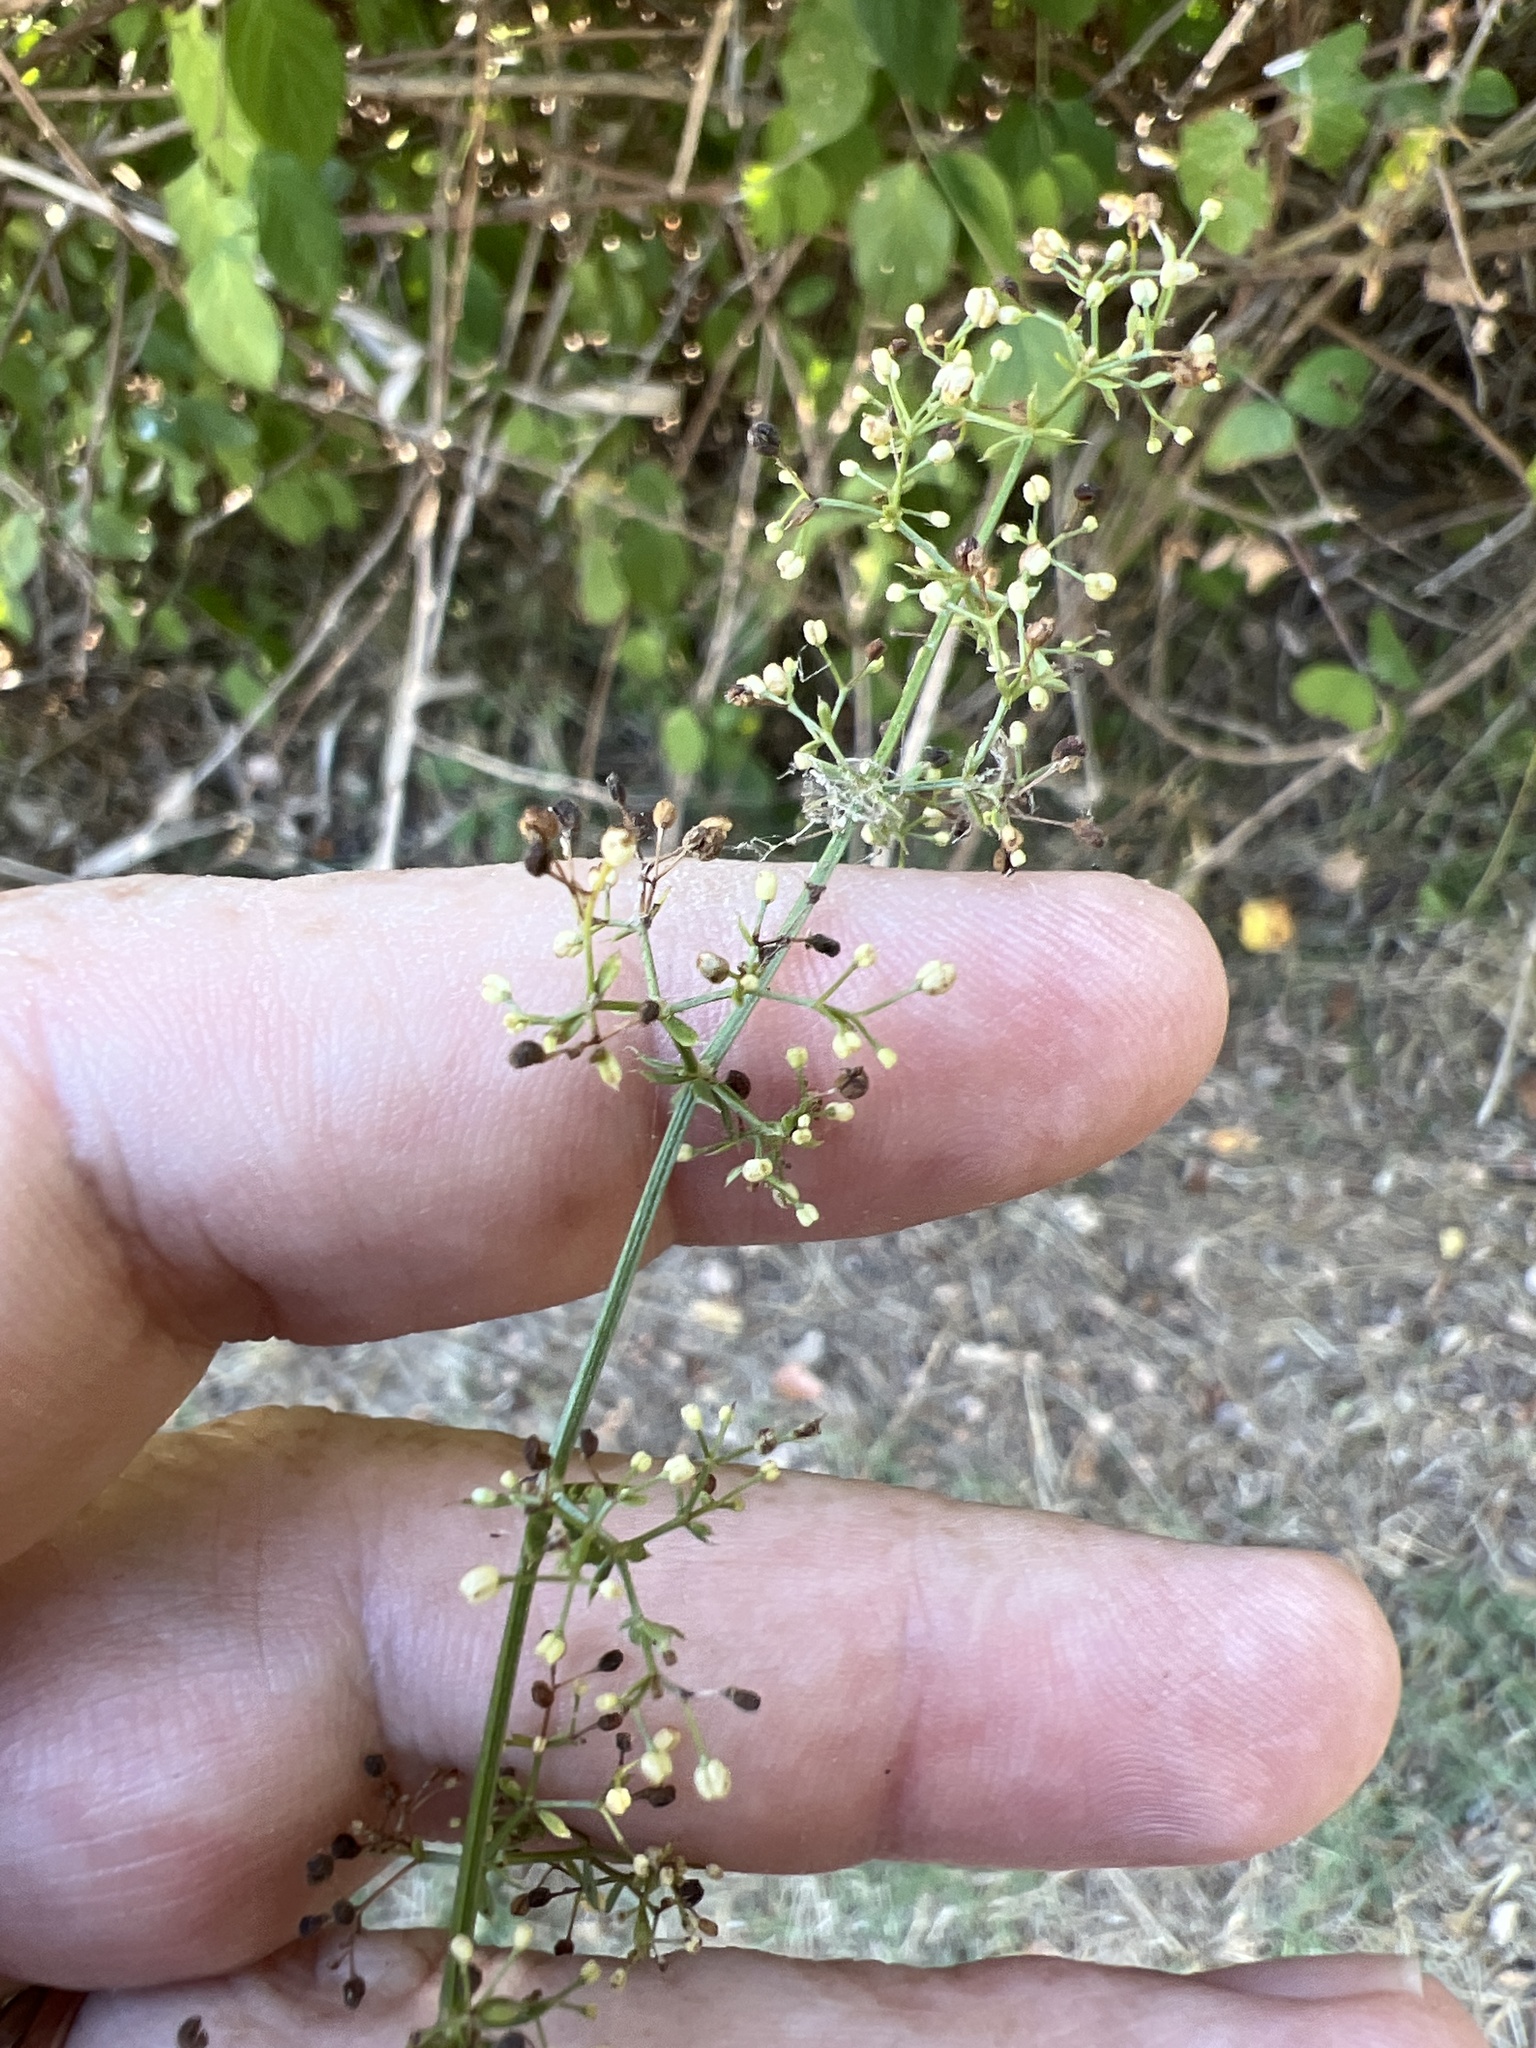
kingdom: Plantae
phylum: Tracheophyta
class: Magnoliopsida
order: Gentianales
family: Rubiaceae
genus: Galium
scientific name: Galium mollugo
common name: Hedge bedstraw
